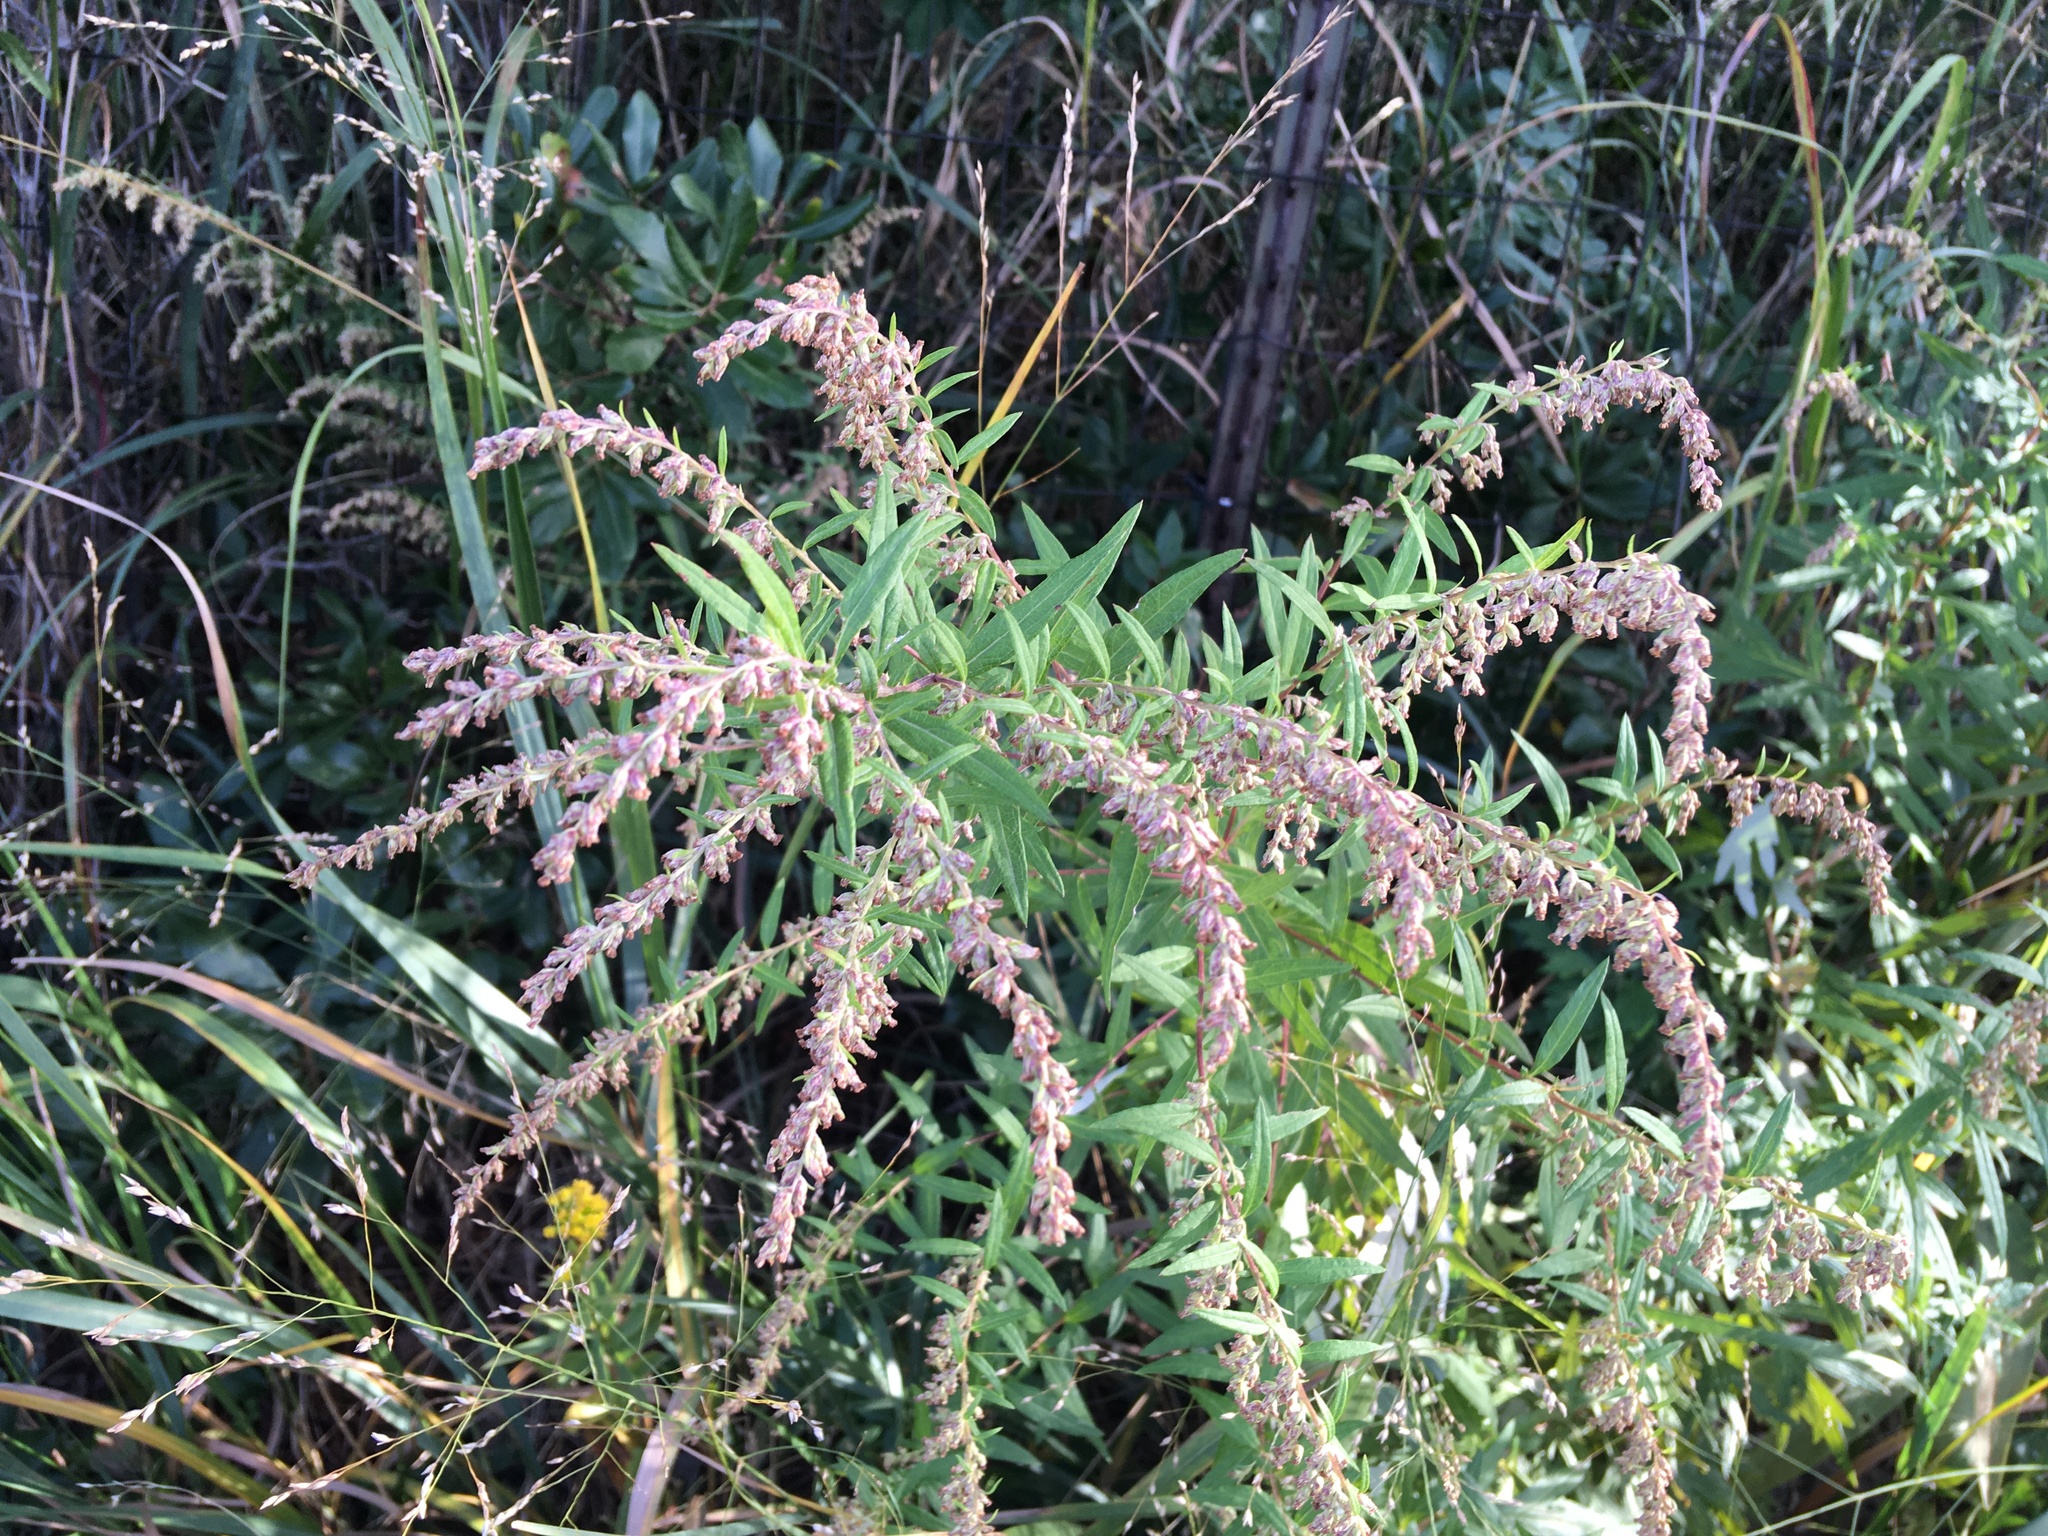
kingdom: Plantae
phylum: Tracheophyta
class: Magnoliopsida
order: Asterales
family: Asteraceae
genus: Artemisia
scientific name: Artemisia vulgaris
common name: Mugwort
